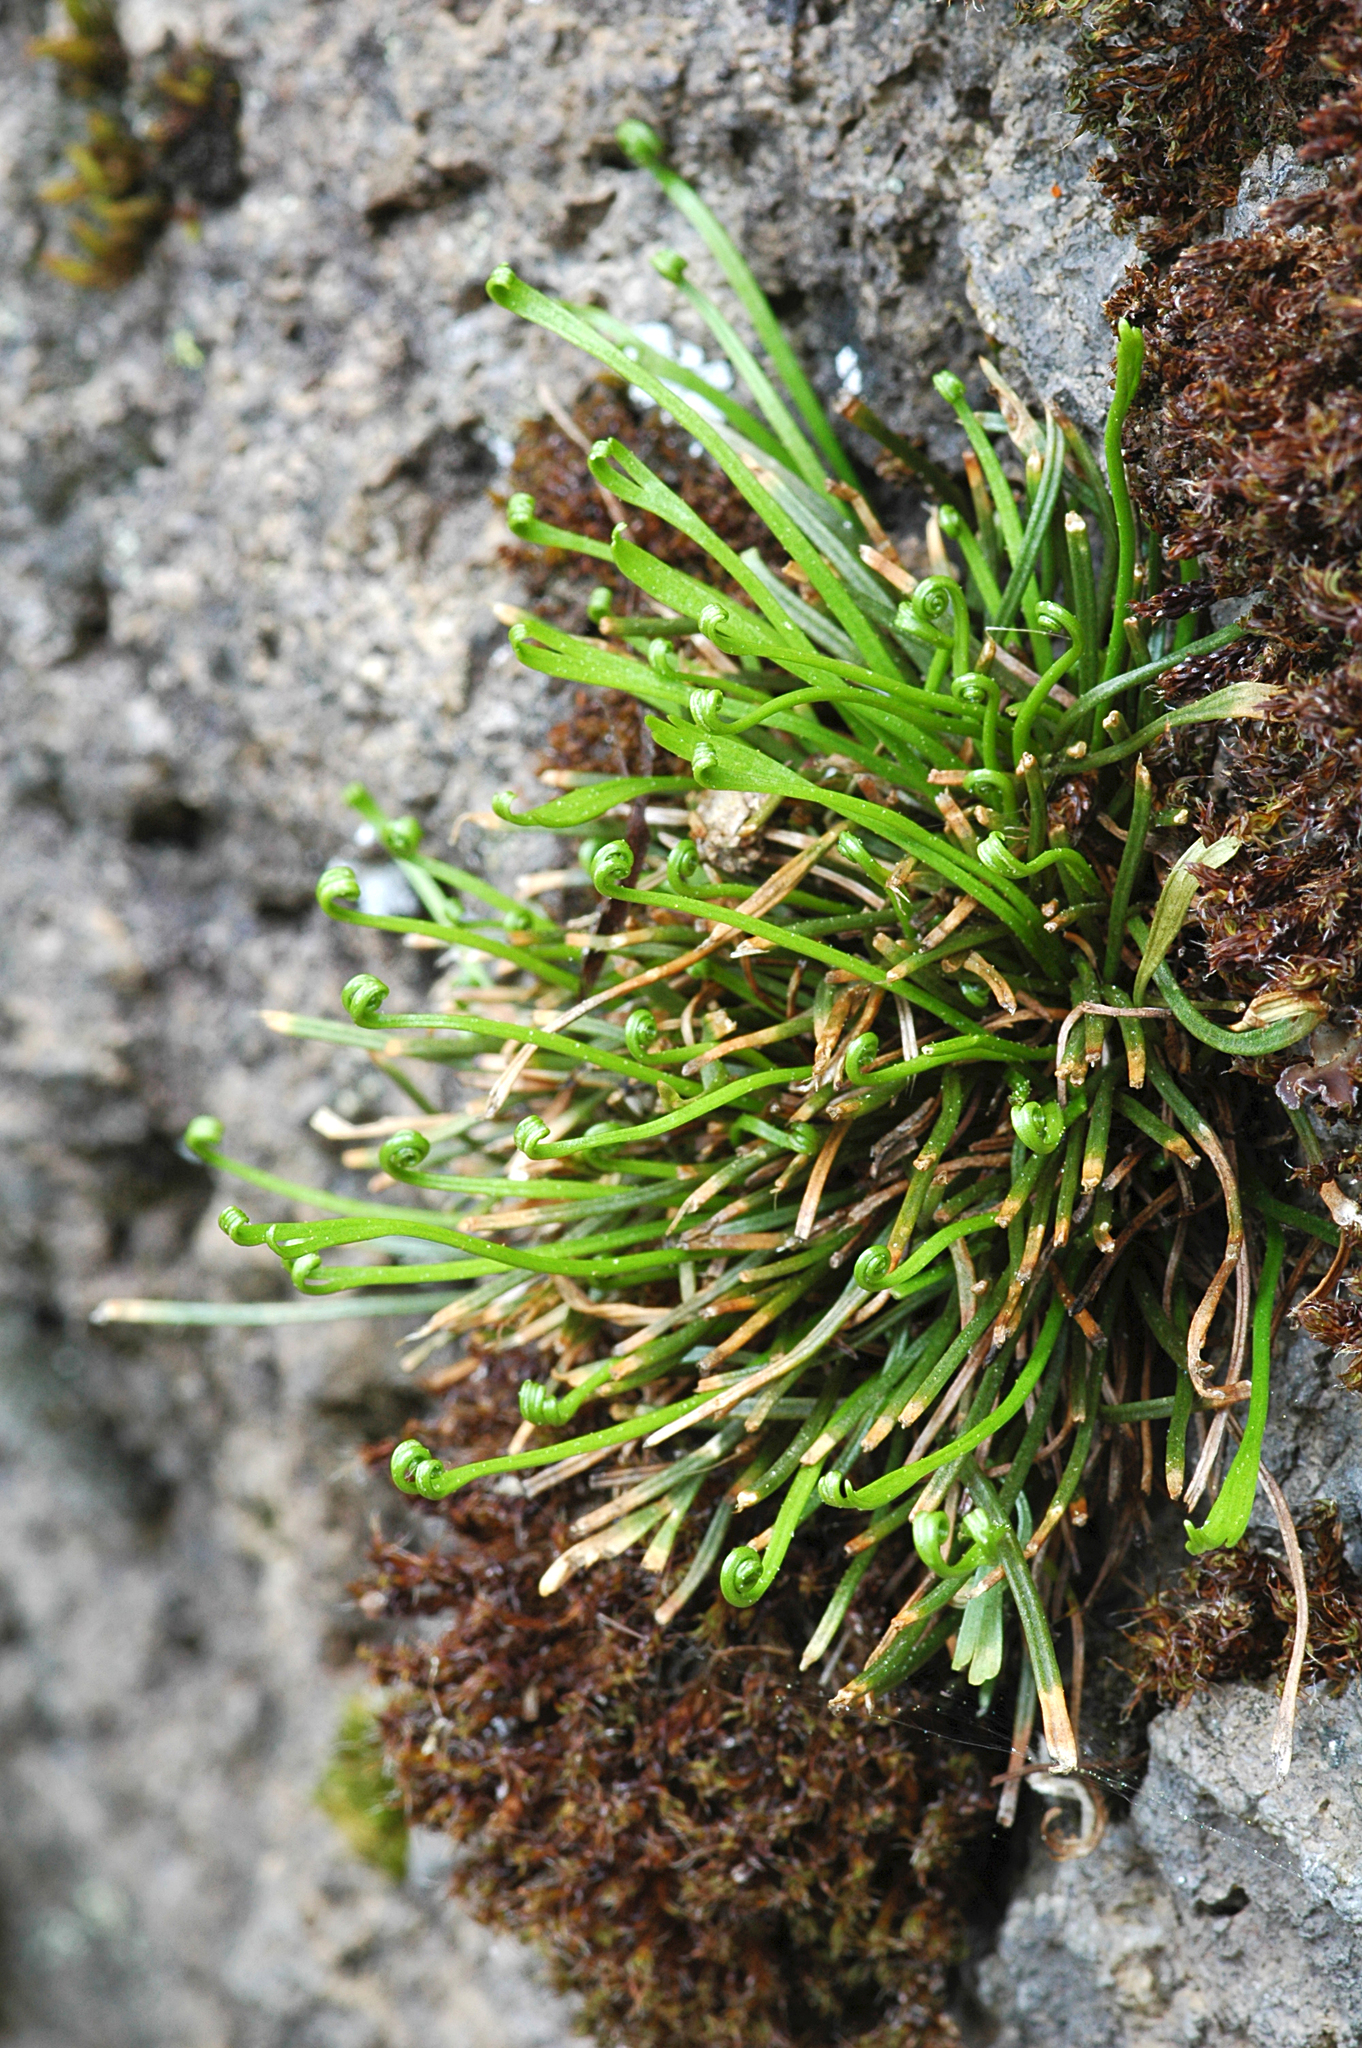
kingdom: Plantae
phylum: Tracheophyta
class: Polypodiopsida
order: Polypodiales
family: Aspleniaceae
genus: Asplenium
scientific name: Asplenium septentrionale
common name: Forked spleenwort
